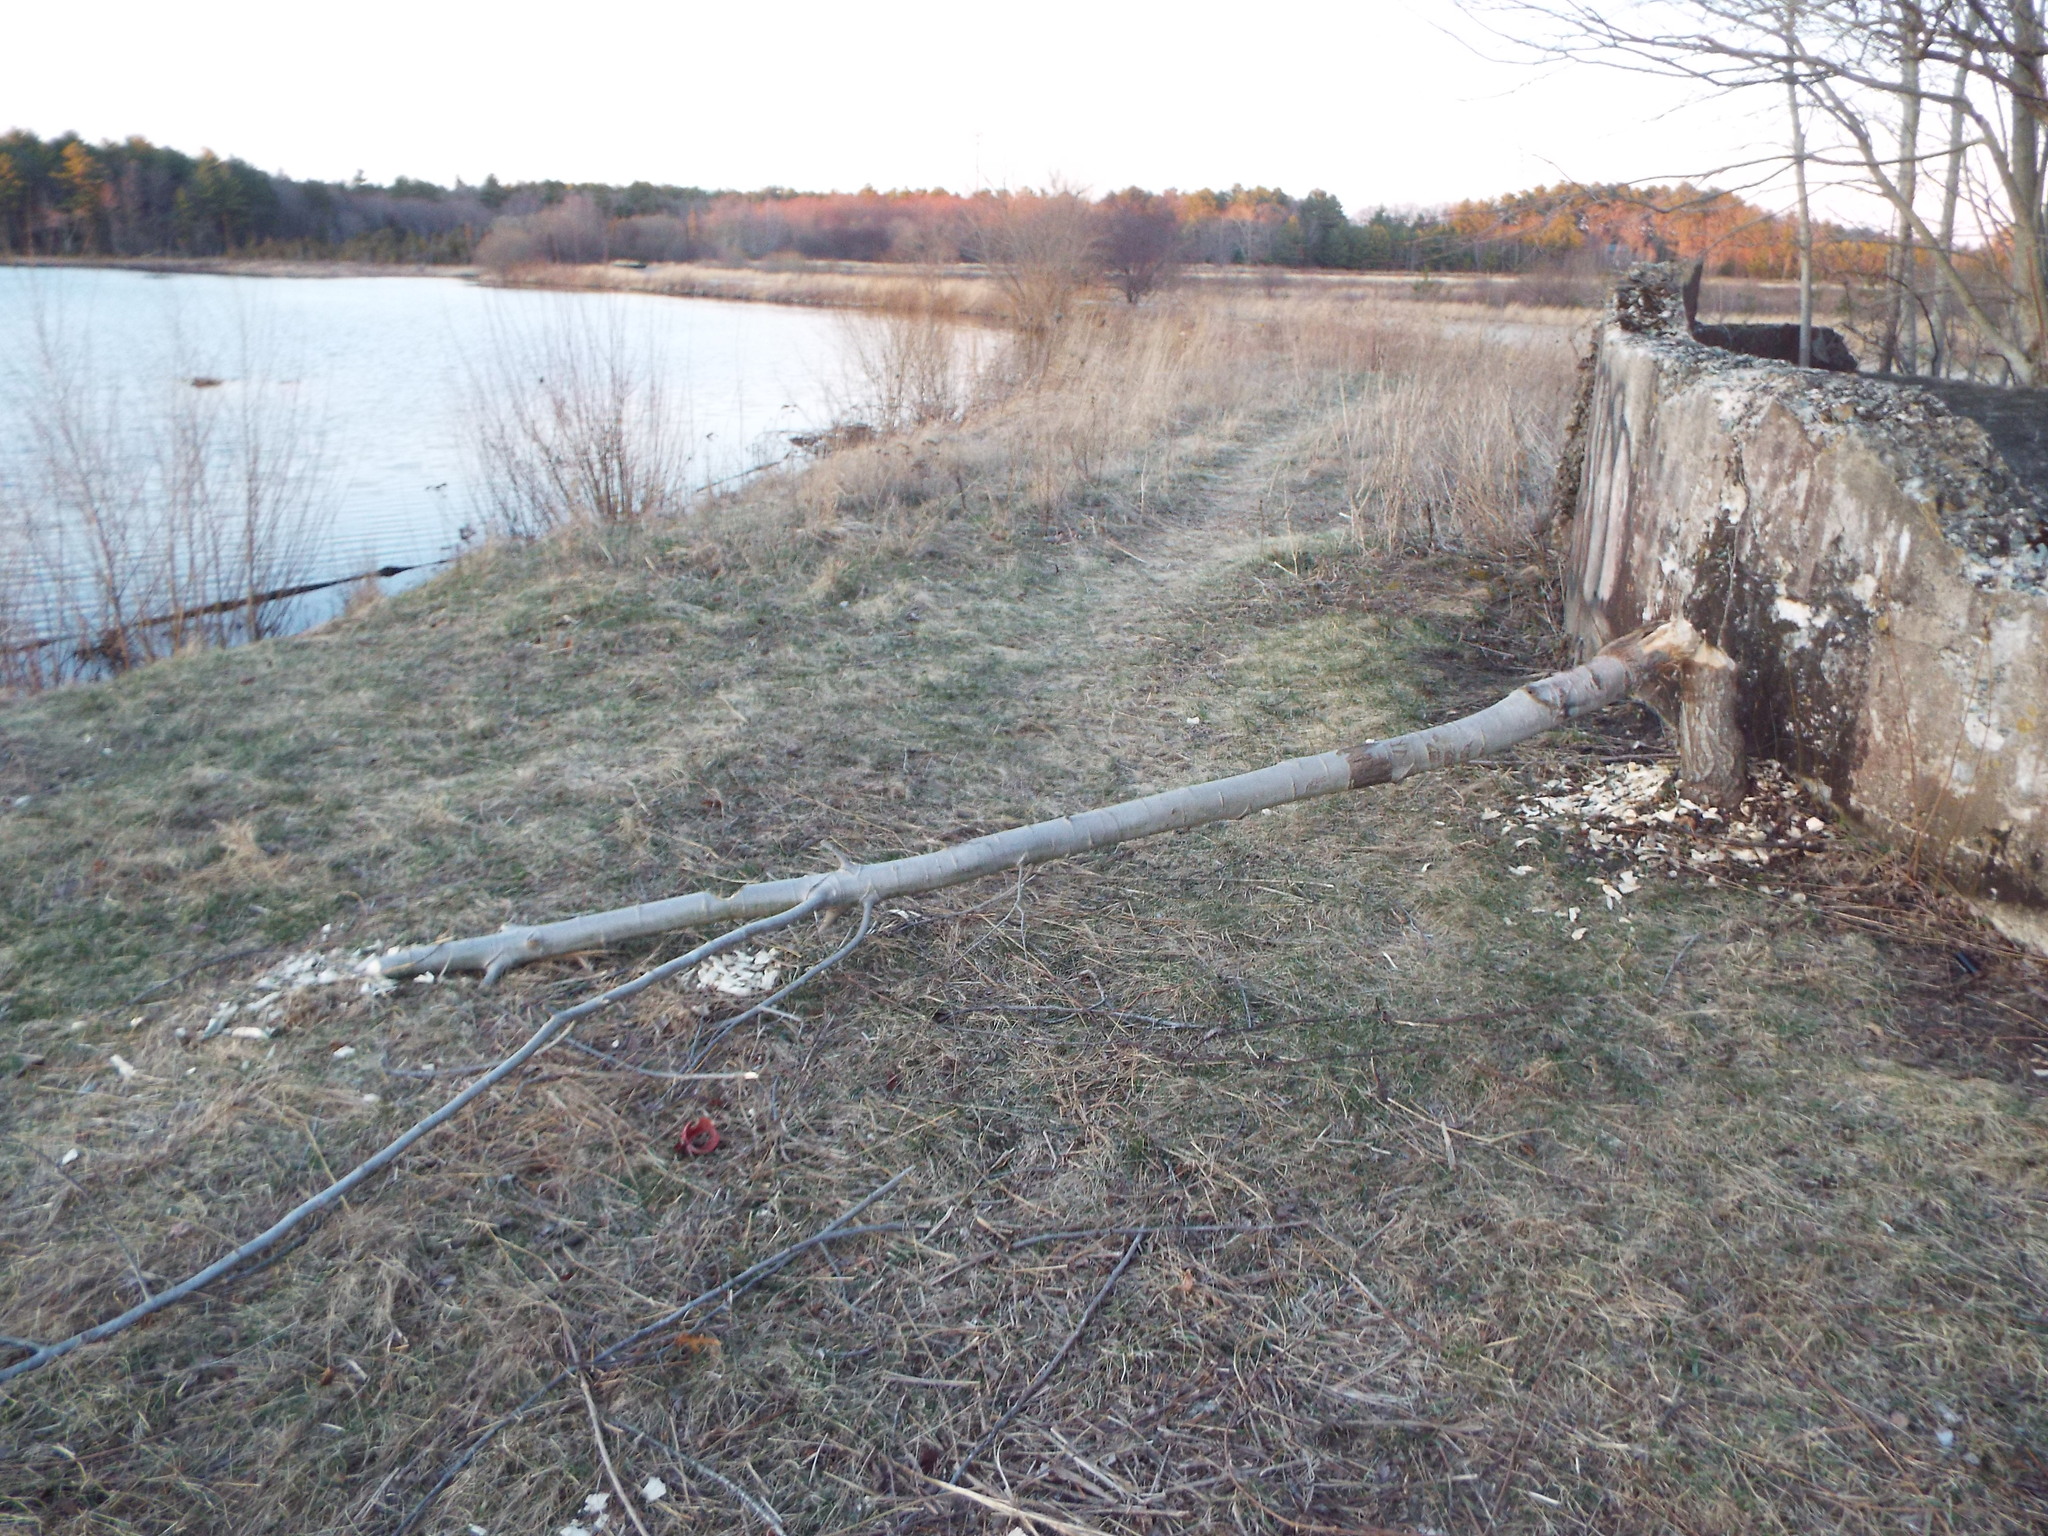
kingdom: Animalia
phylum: Chordata
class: Mammalia
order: Rodentia
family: Castoridae
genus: Castor
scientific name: Castor canadensis
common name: American beaver
